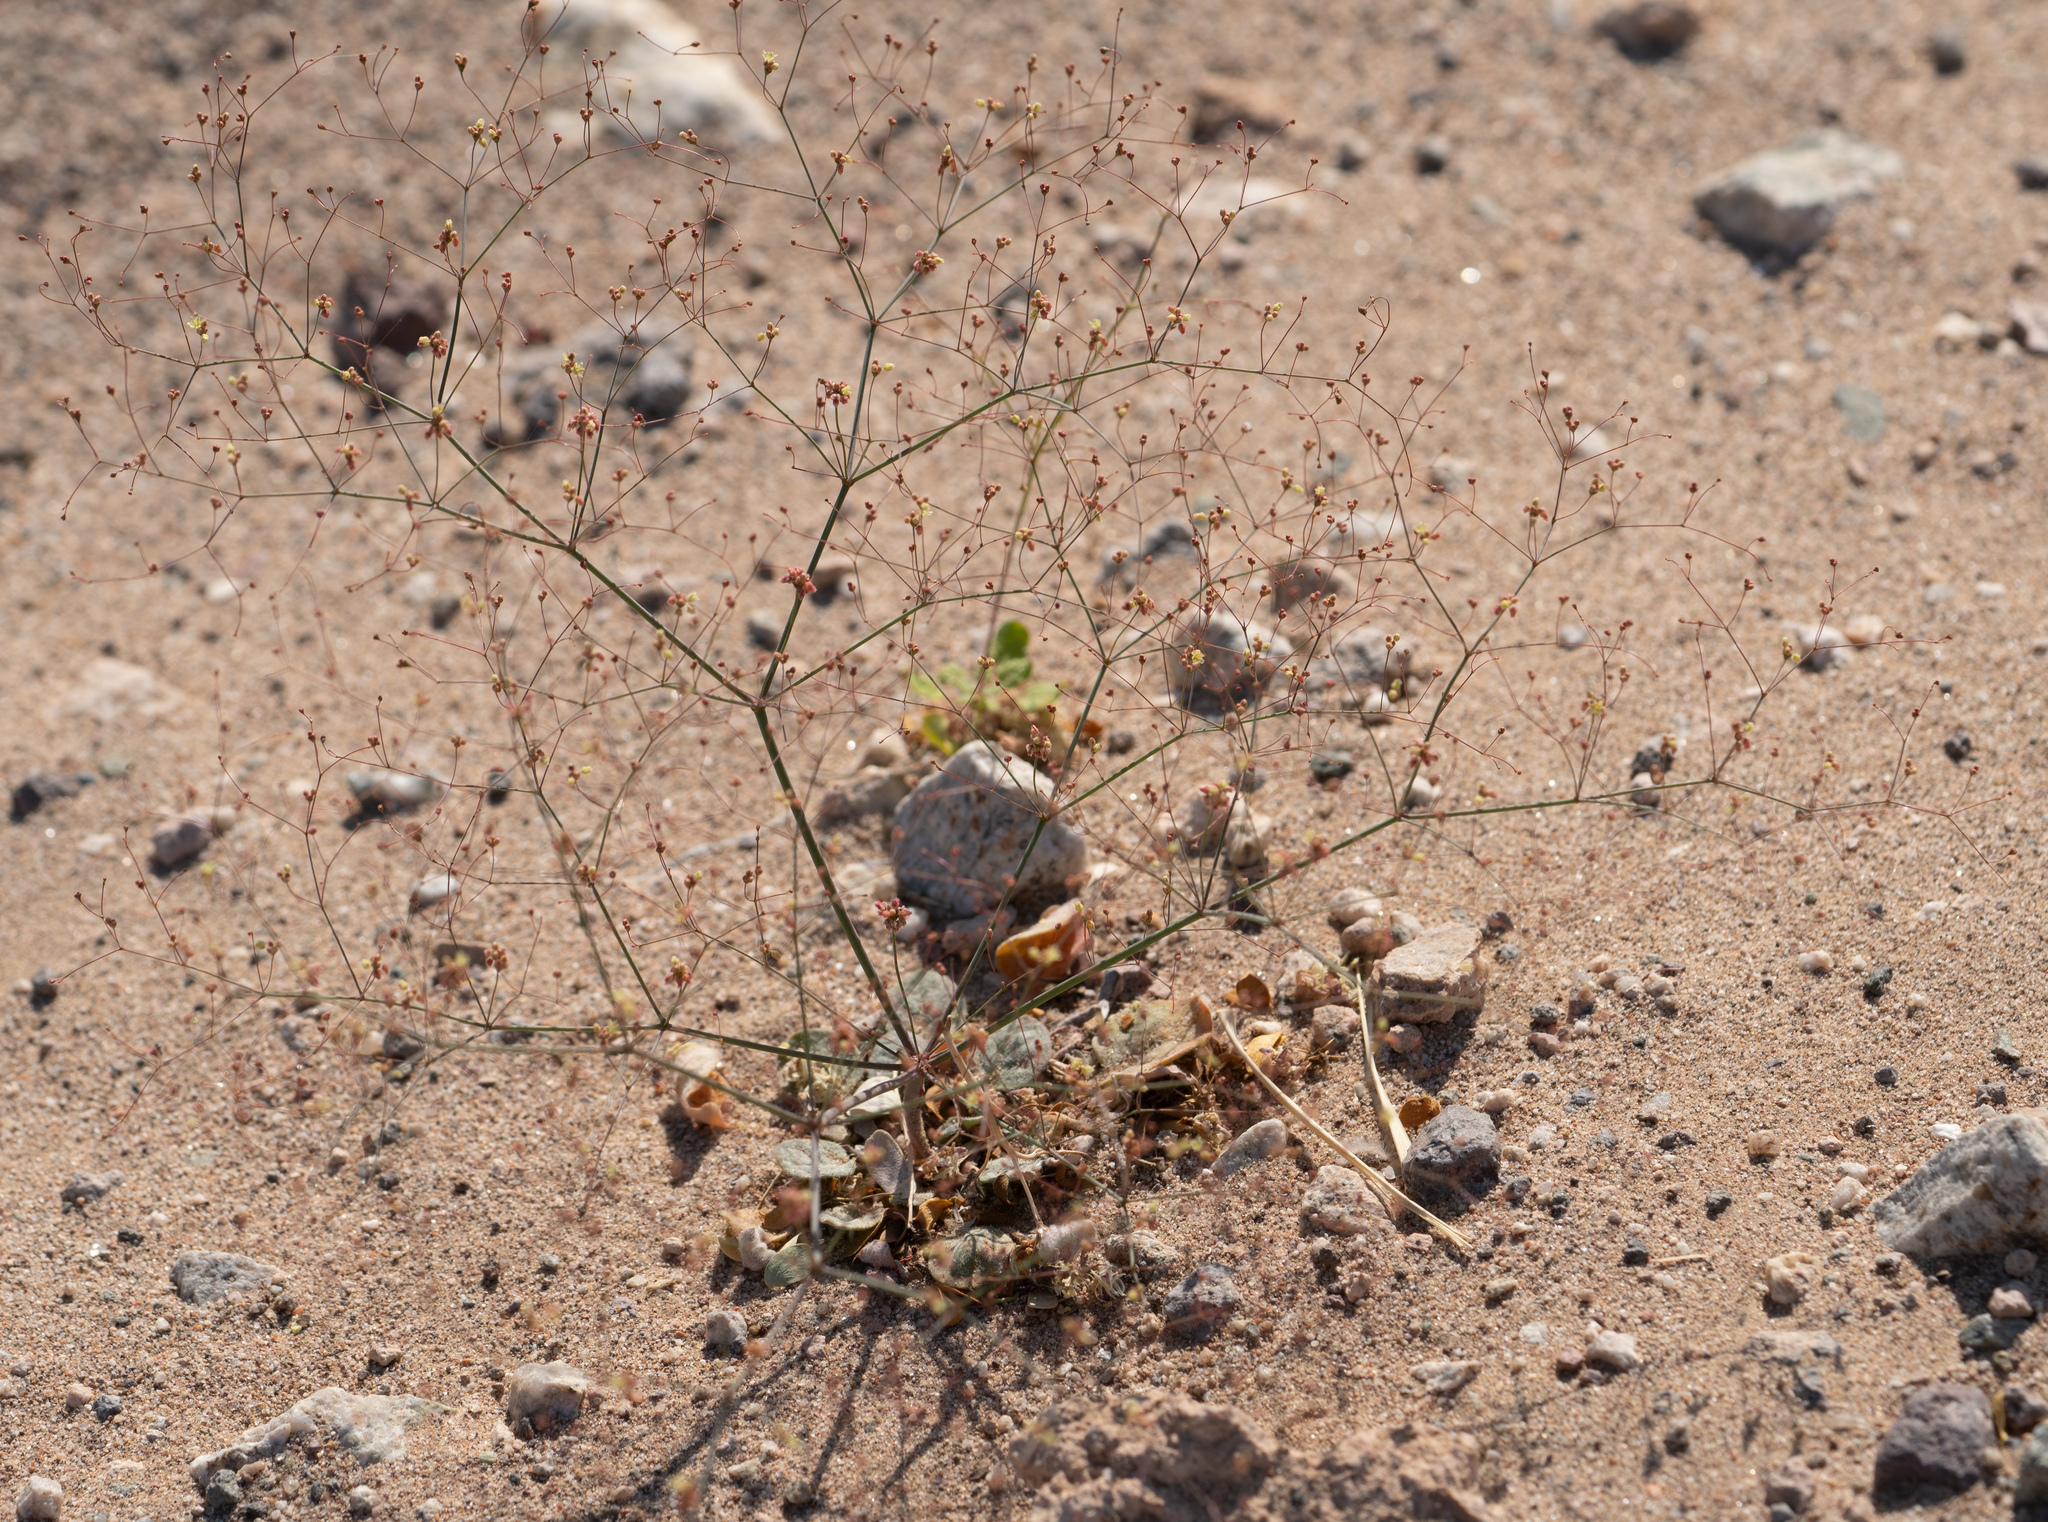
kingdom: Plantae
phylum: Tracheophyta
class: Magnoliopsida
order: Caryophyllales
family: Polygonaceae
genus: Eriogonum
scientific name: Eriogonum thomasii
